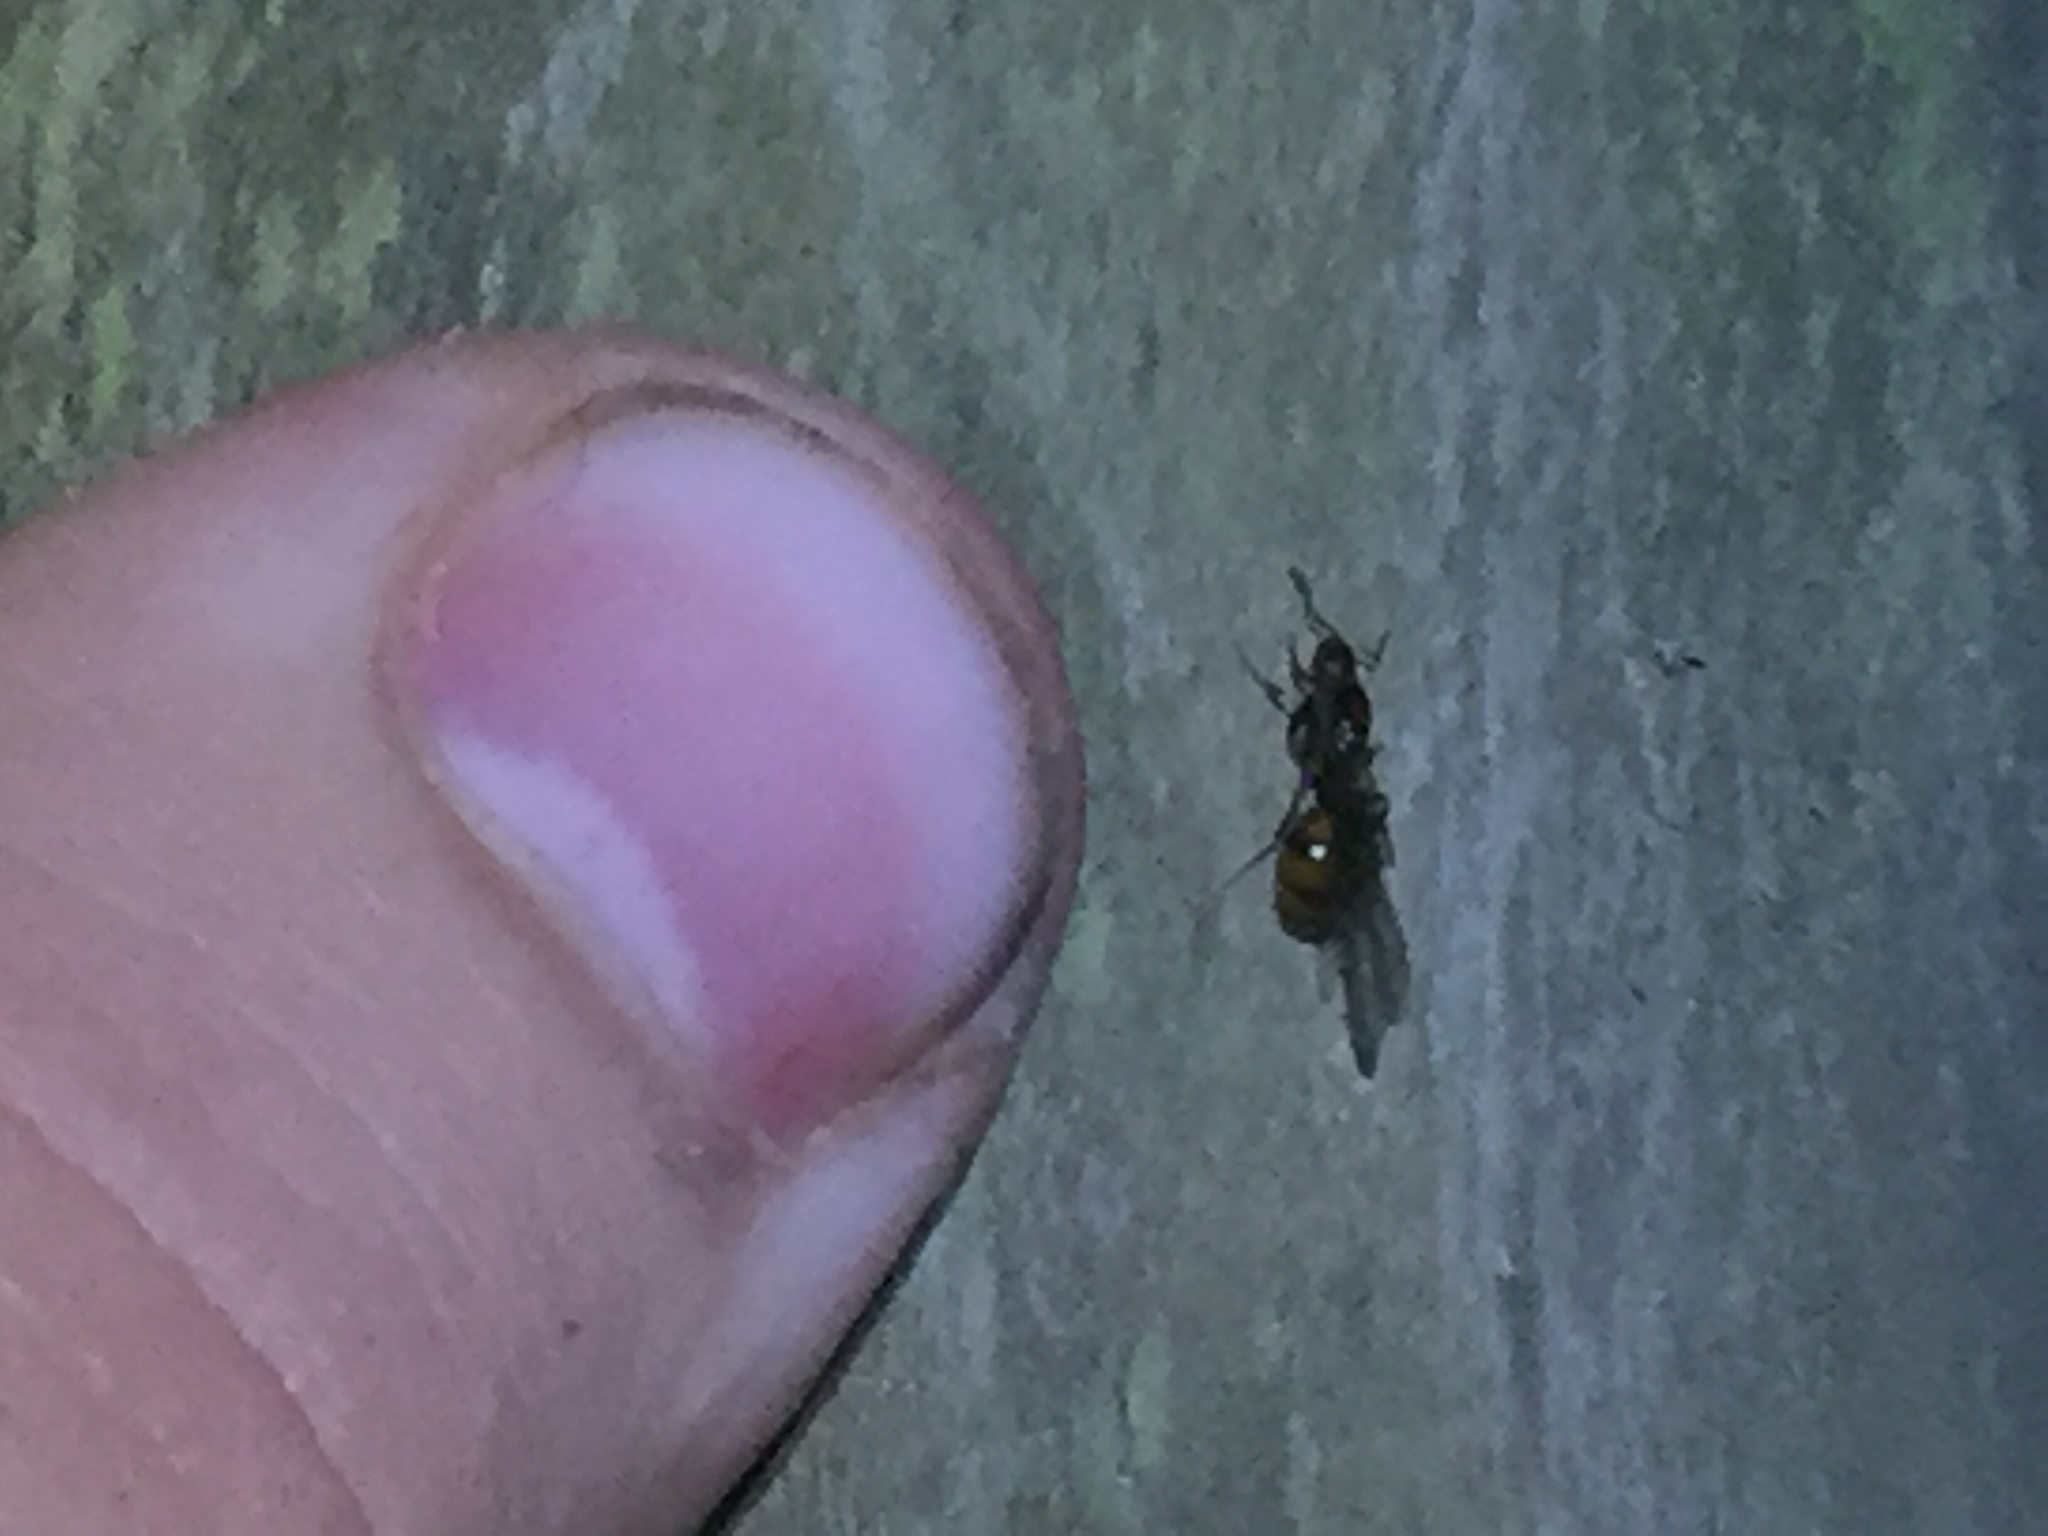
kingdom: Animalia
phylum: Arthropoda
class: Insecta
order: Hymenoptera
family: Formicidae
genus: Monomorium
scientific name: Monomorium antarcticum
